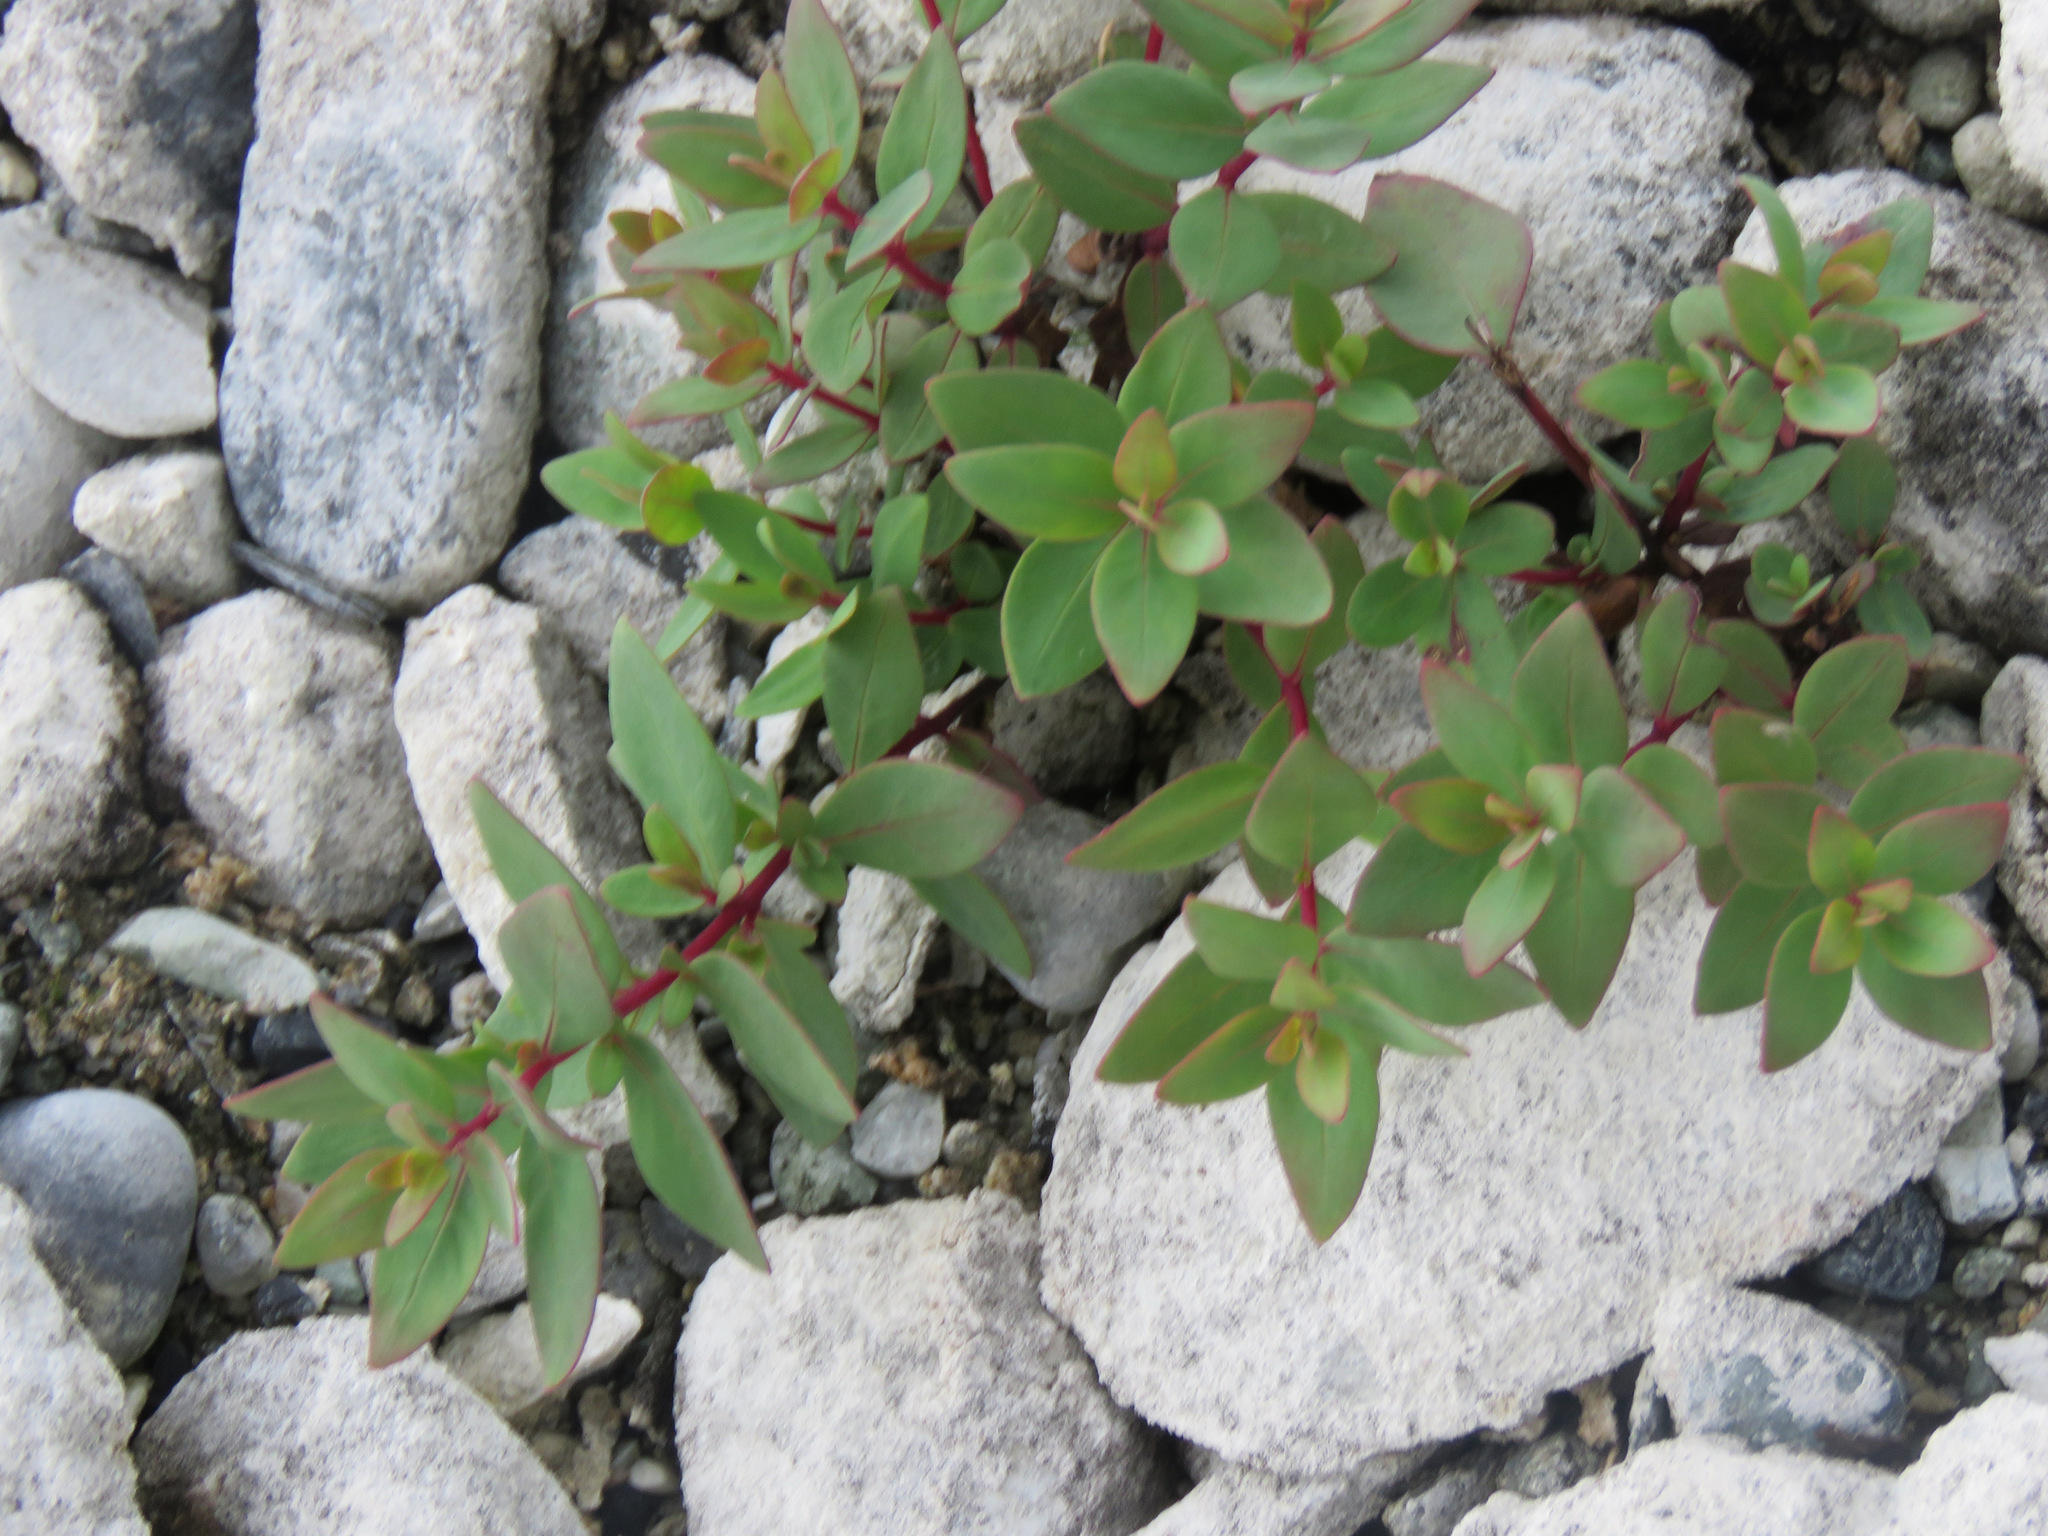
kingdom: Plantae
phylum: Tracheophyta
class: Magnoliopsida
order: Myrtales
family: Onagraceae
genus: Chamaenerion
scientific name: Chamaenerion latifolium
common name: Dwarf fireweed
